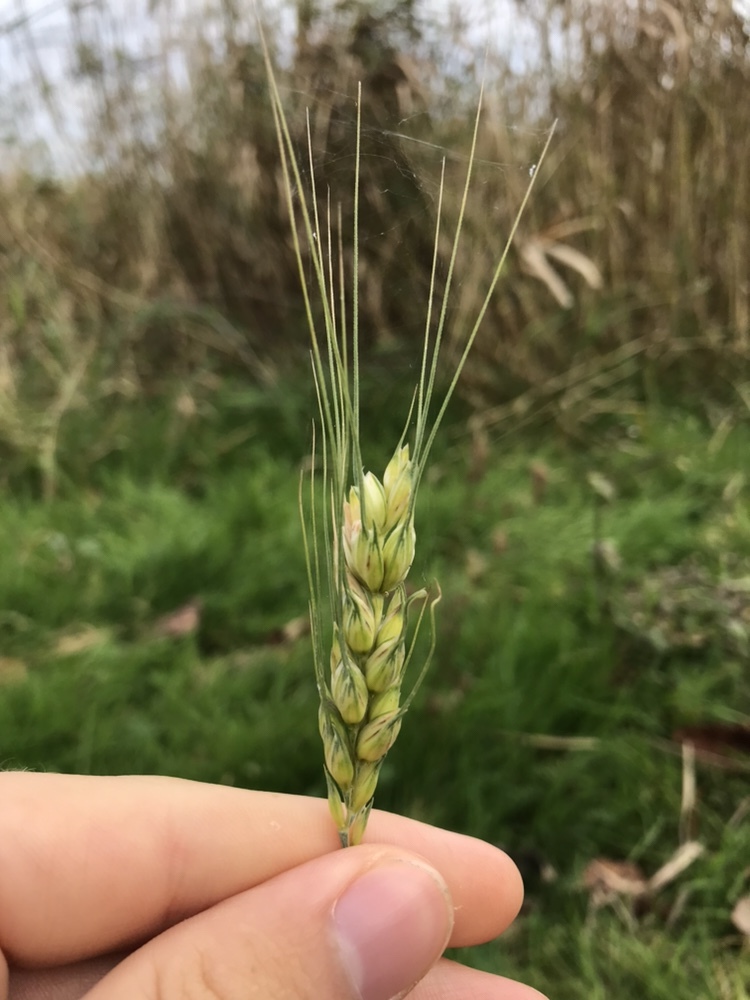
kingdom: Plantae
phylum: Tracheophyta
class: Liliopsida
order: Poales
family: Poaceae
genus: Triticum
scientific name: Triticum aestivum
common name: Common wheat
